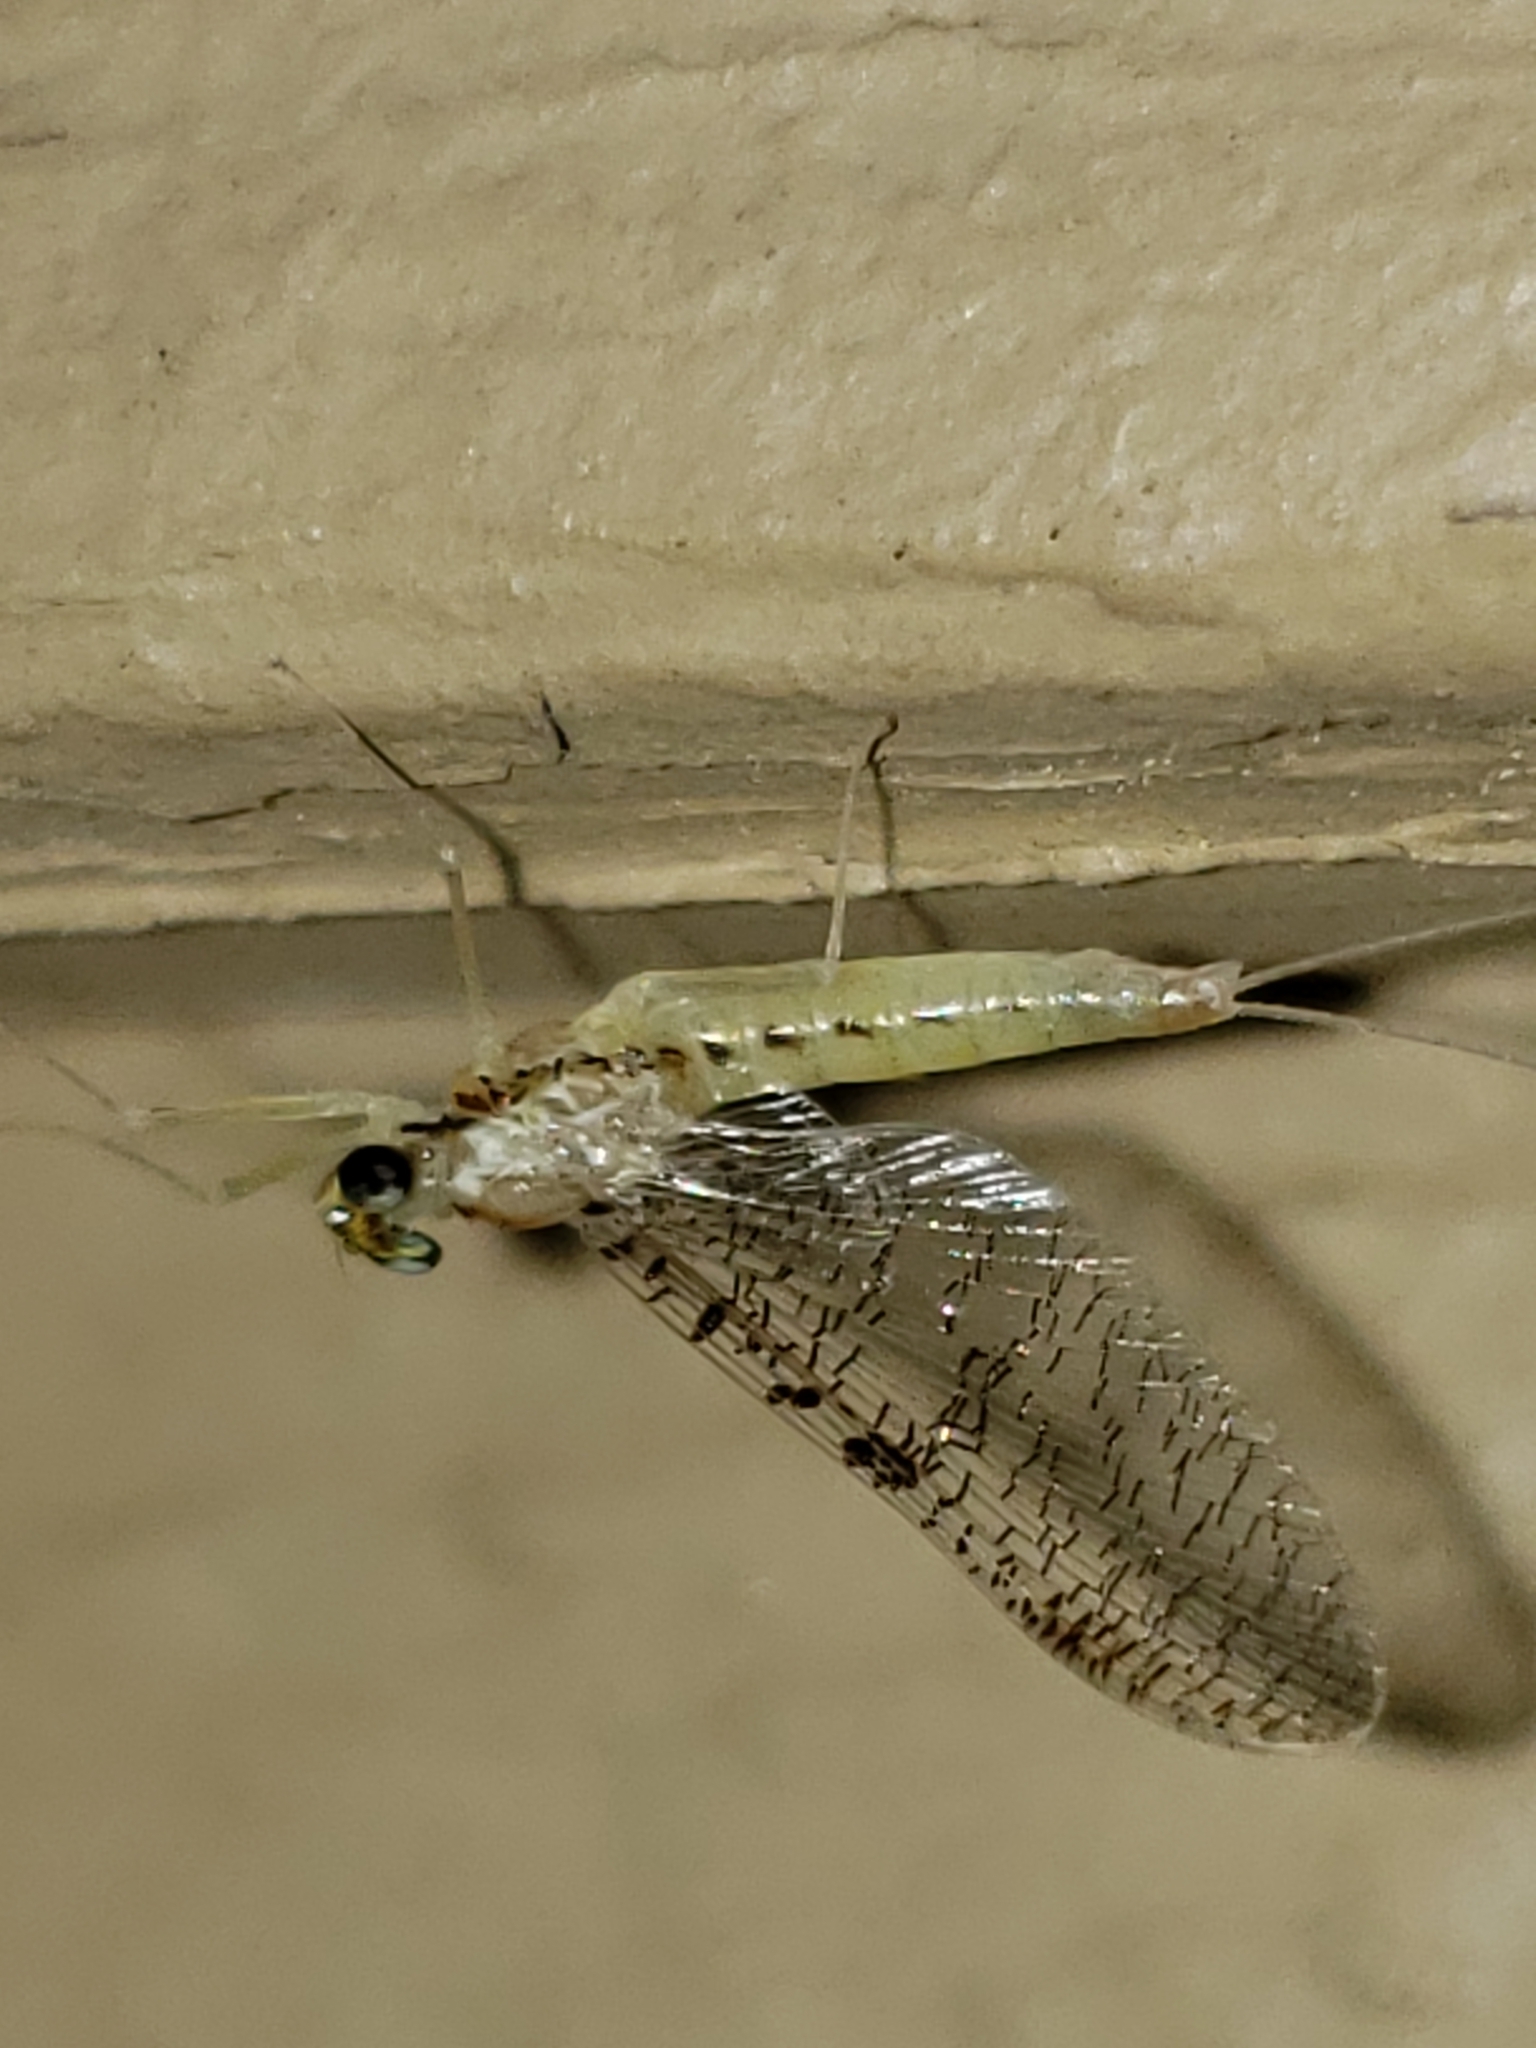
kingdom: Animalia
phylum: Arthropoda
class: Insecta
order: Ephemeroptera
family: Heptageniidae
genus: Leucrocuta
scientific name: Leucrocuta hebe
